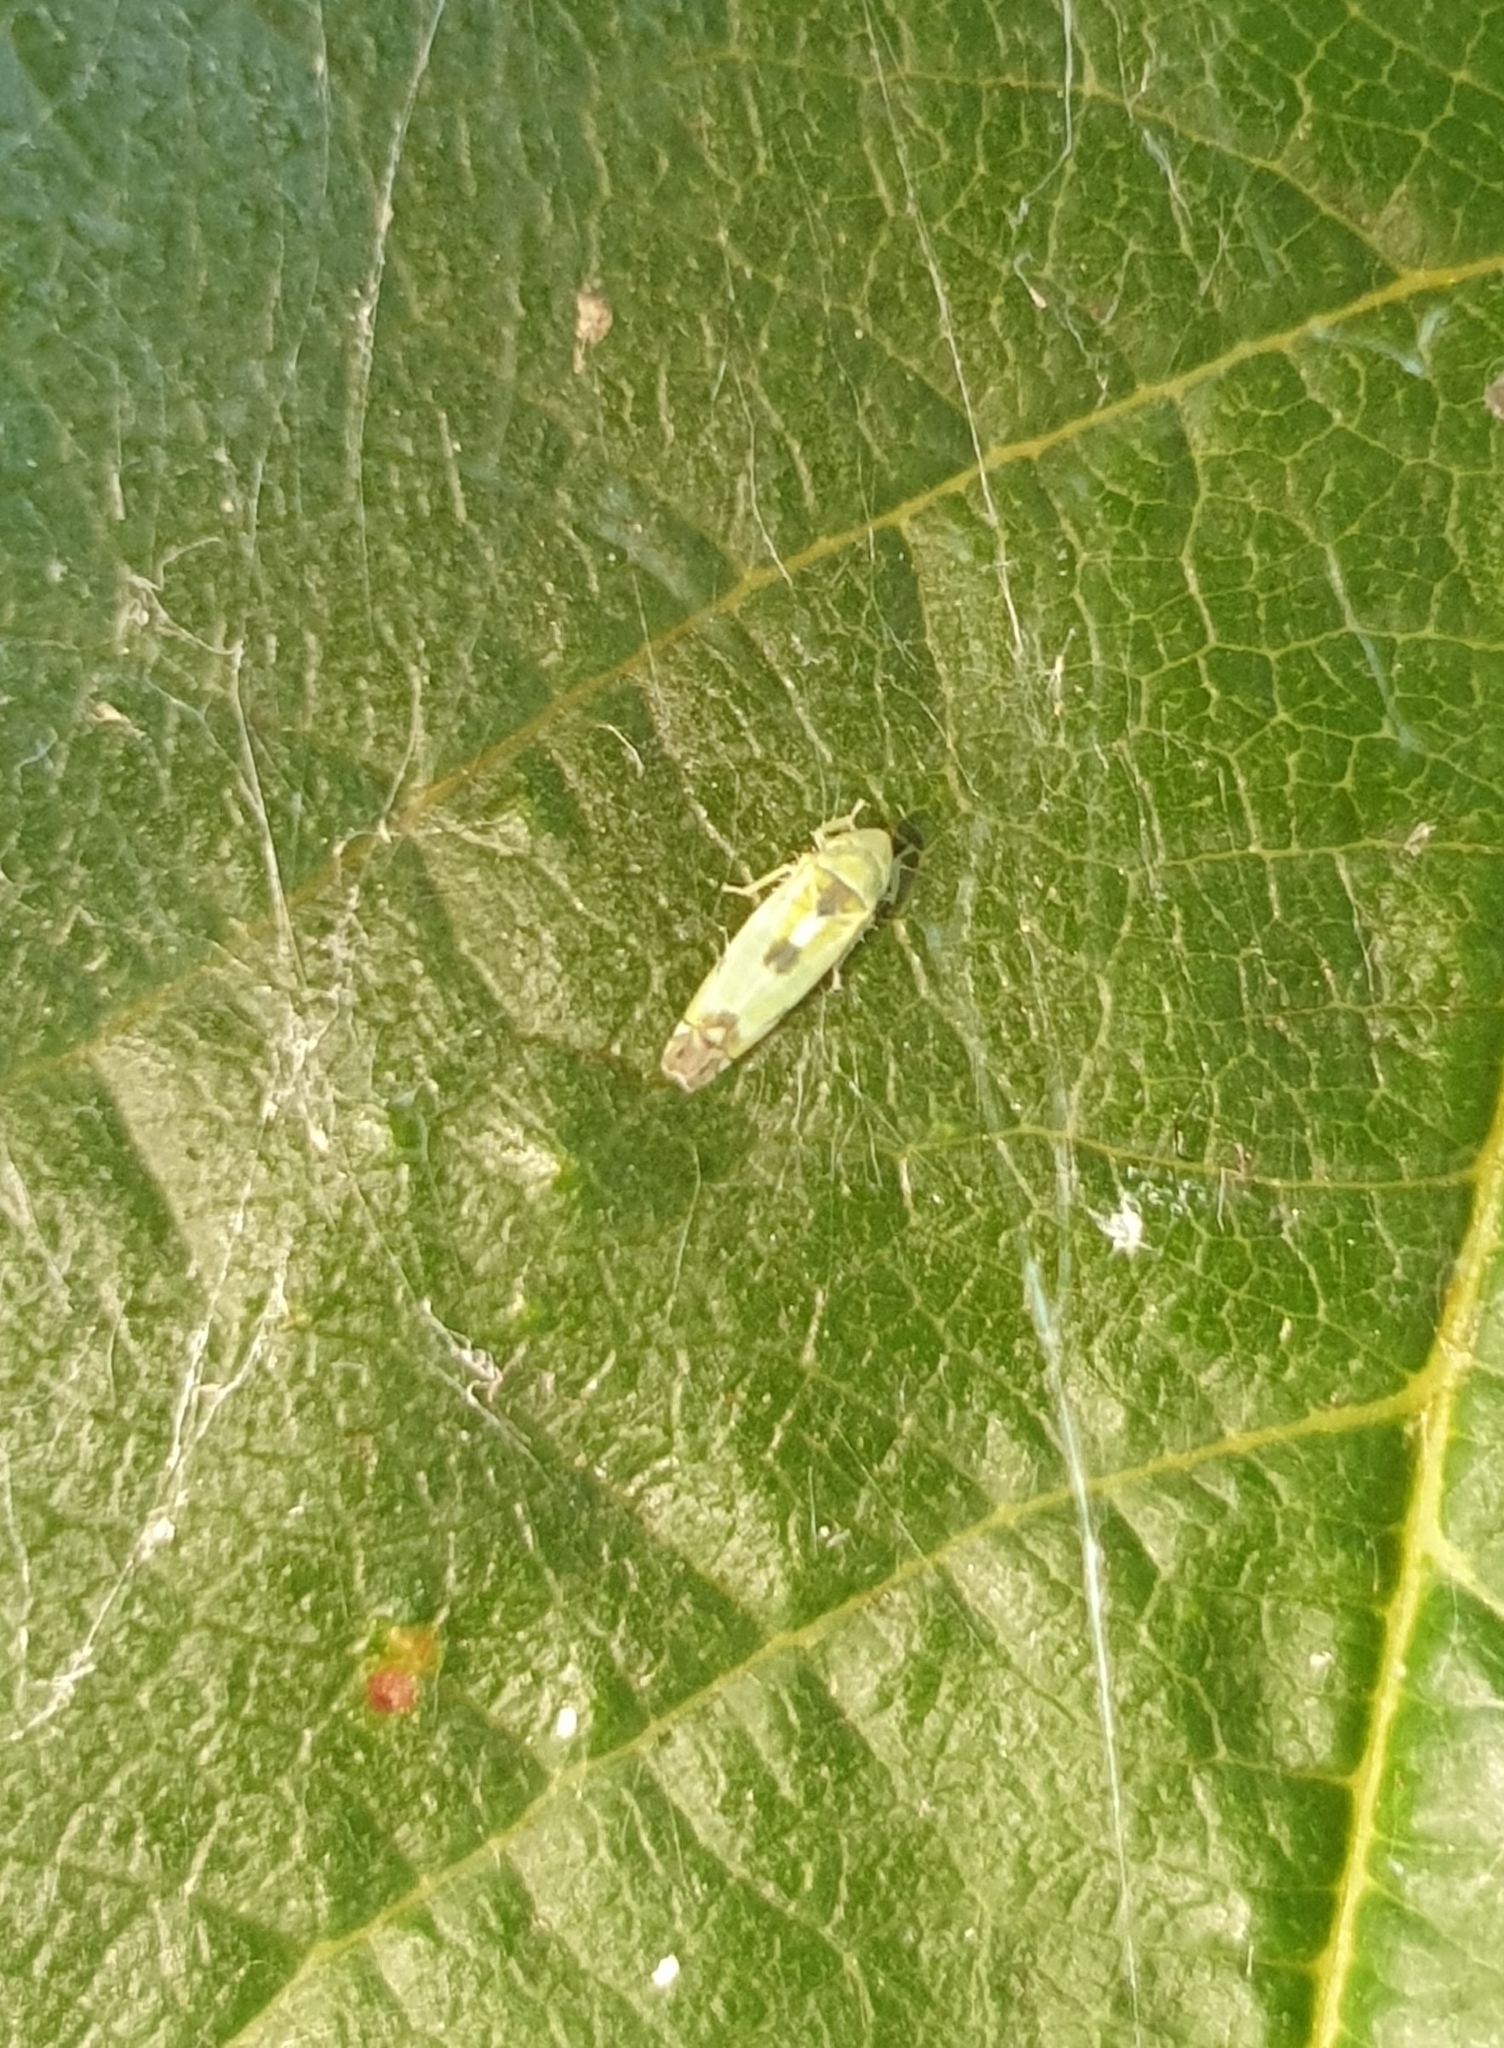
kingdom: Animalia
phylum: Arthropoda
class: Insecta
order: Hemiptera
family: Cicadellidae
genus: Zyginella
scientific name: Zyginella pulchra
